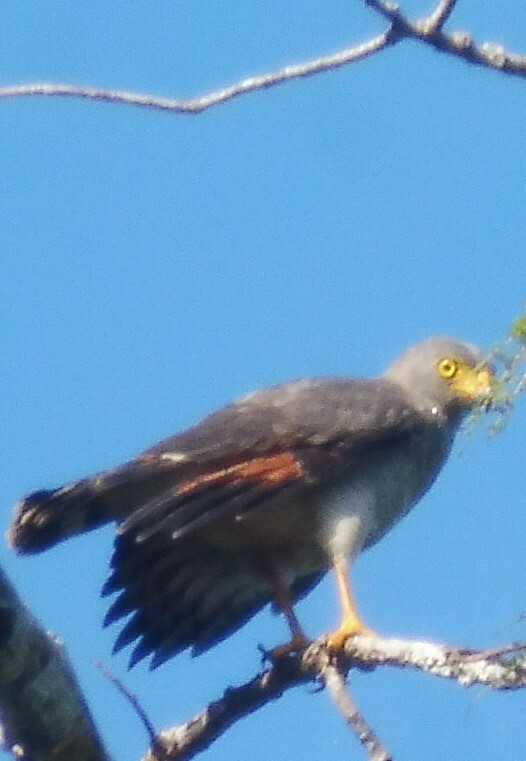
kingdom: Animalia
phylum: Chordata
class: Aves
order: Accipitriformes
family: Accipitridae
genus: Rupornis
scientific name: Rupornis magnirostris
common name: Roadside hawk
